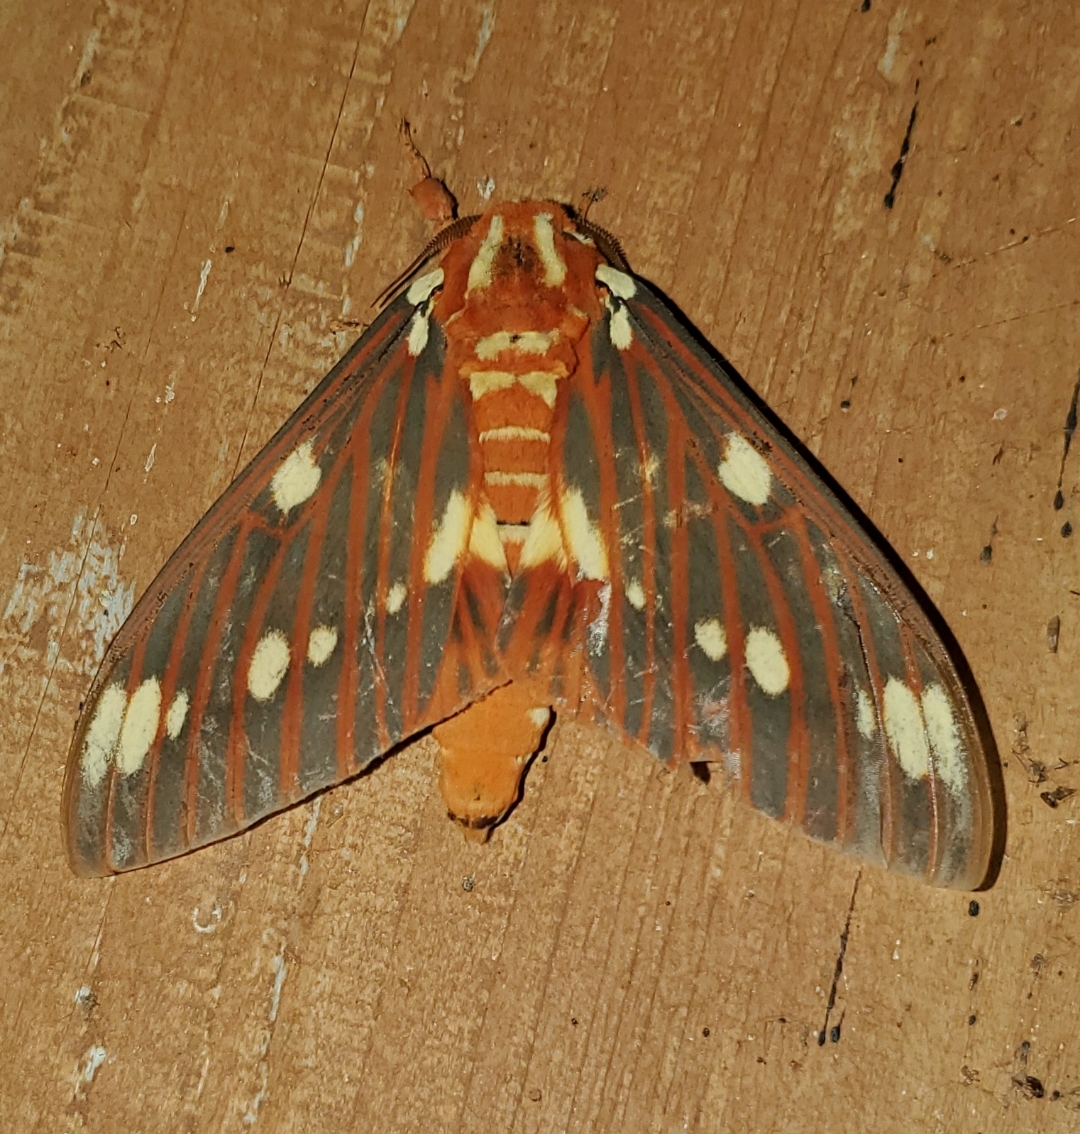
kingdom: Animalia
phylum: Arthropoda
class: Insecta
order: Lepidoptera
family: Saturniidae
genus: Citheronia
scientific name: Citheronia regalis
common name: Hickory horned devil
